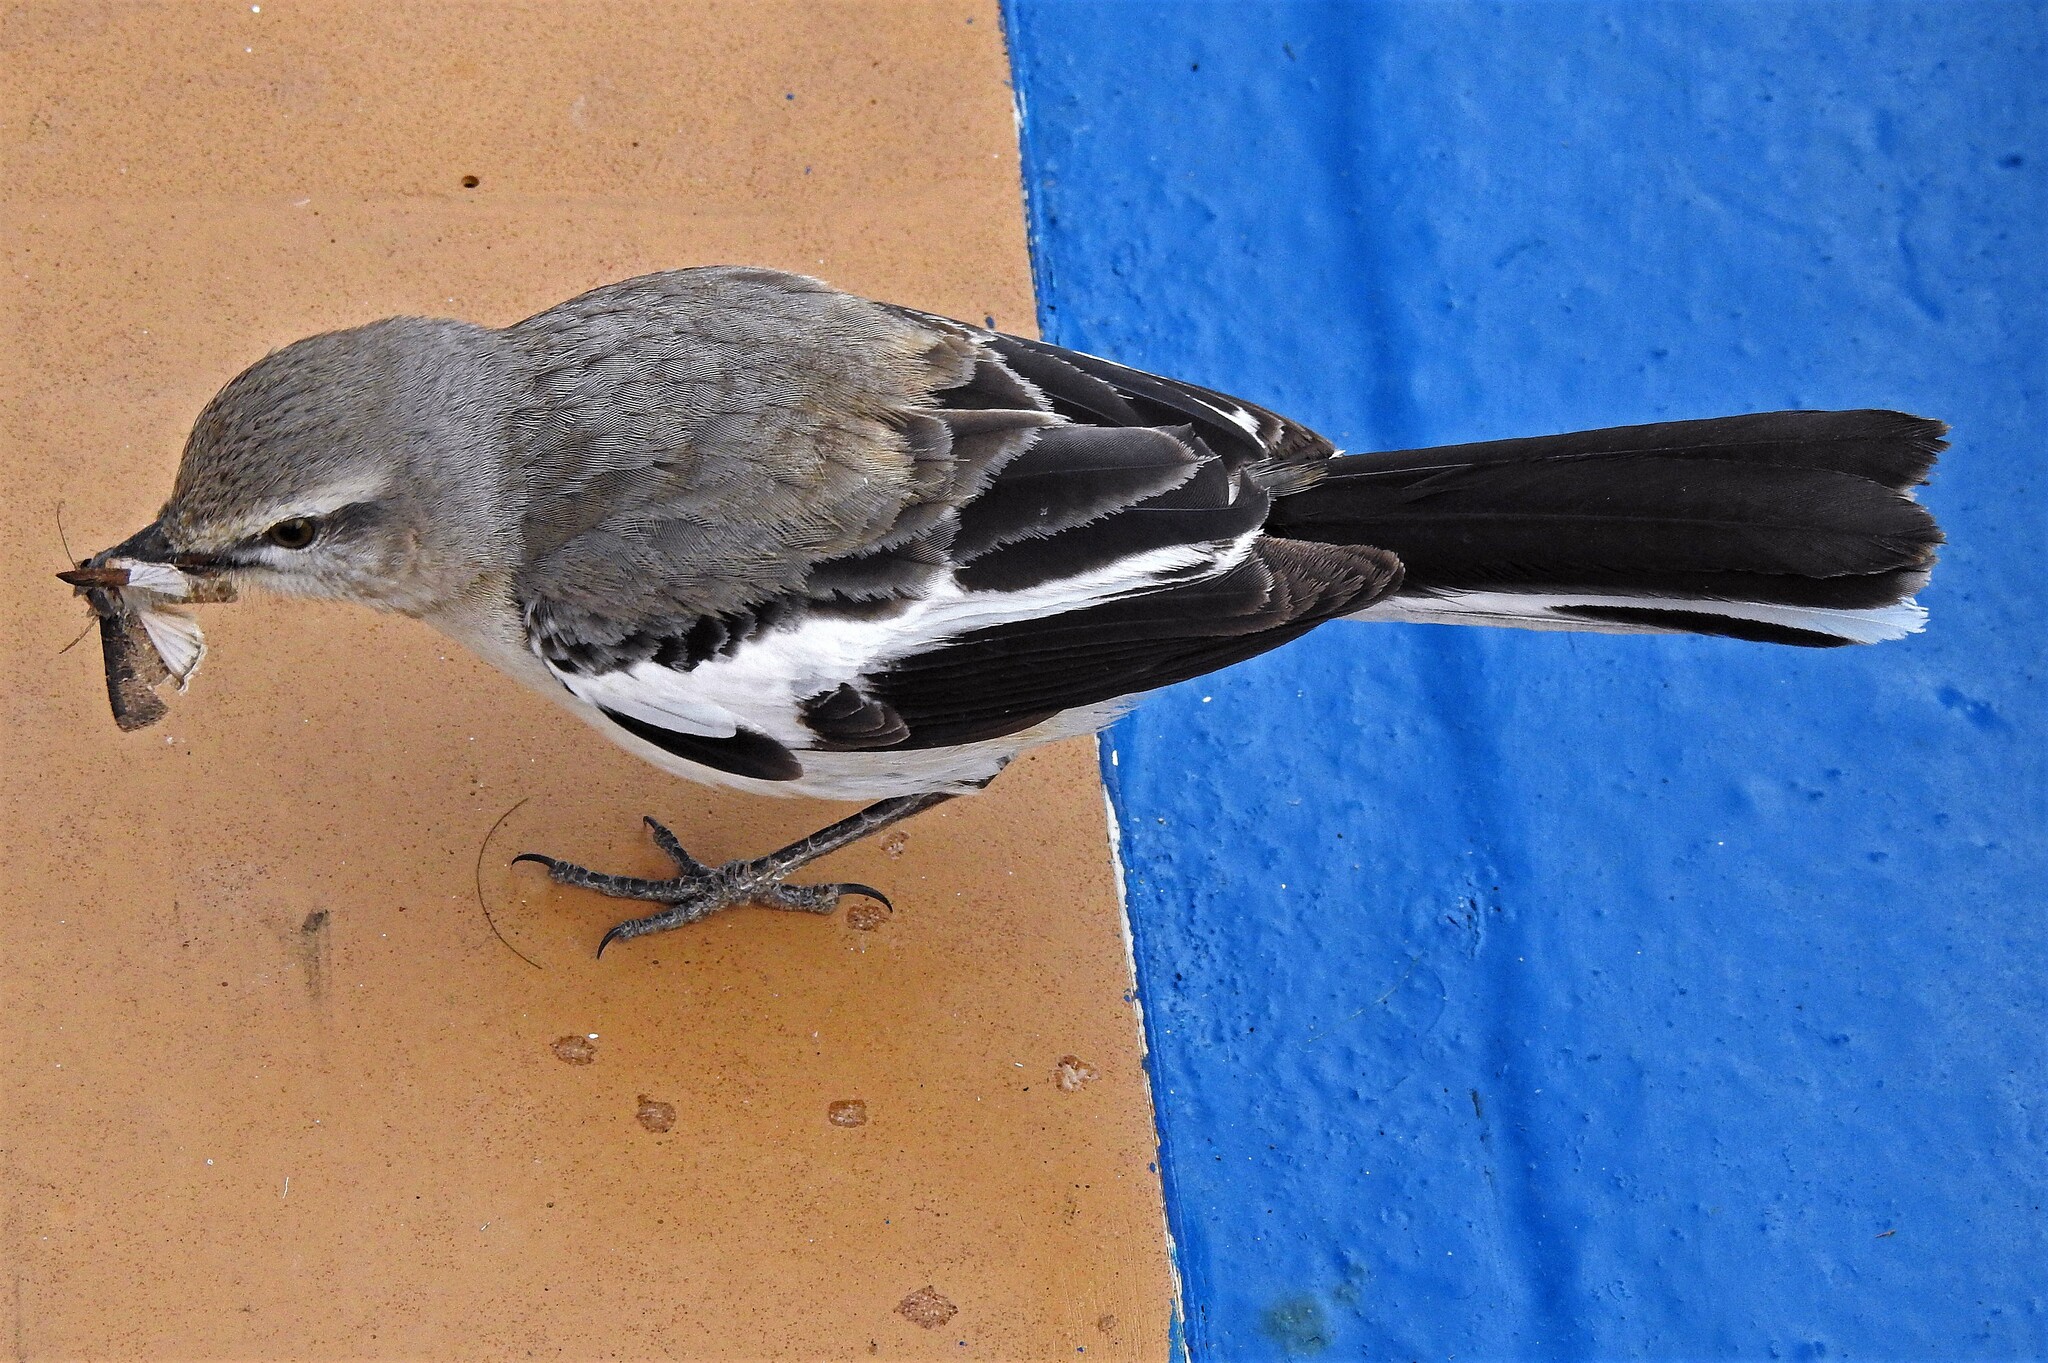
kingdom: Animalia
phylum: Chordata
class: Aves
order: Passeriformes
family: Mimidae
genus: Mimus
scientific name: Mimus triurus
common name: White-banded mockingbird
